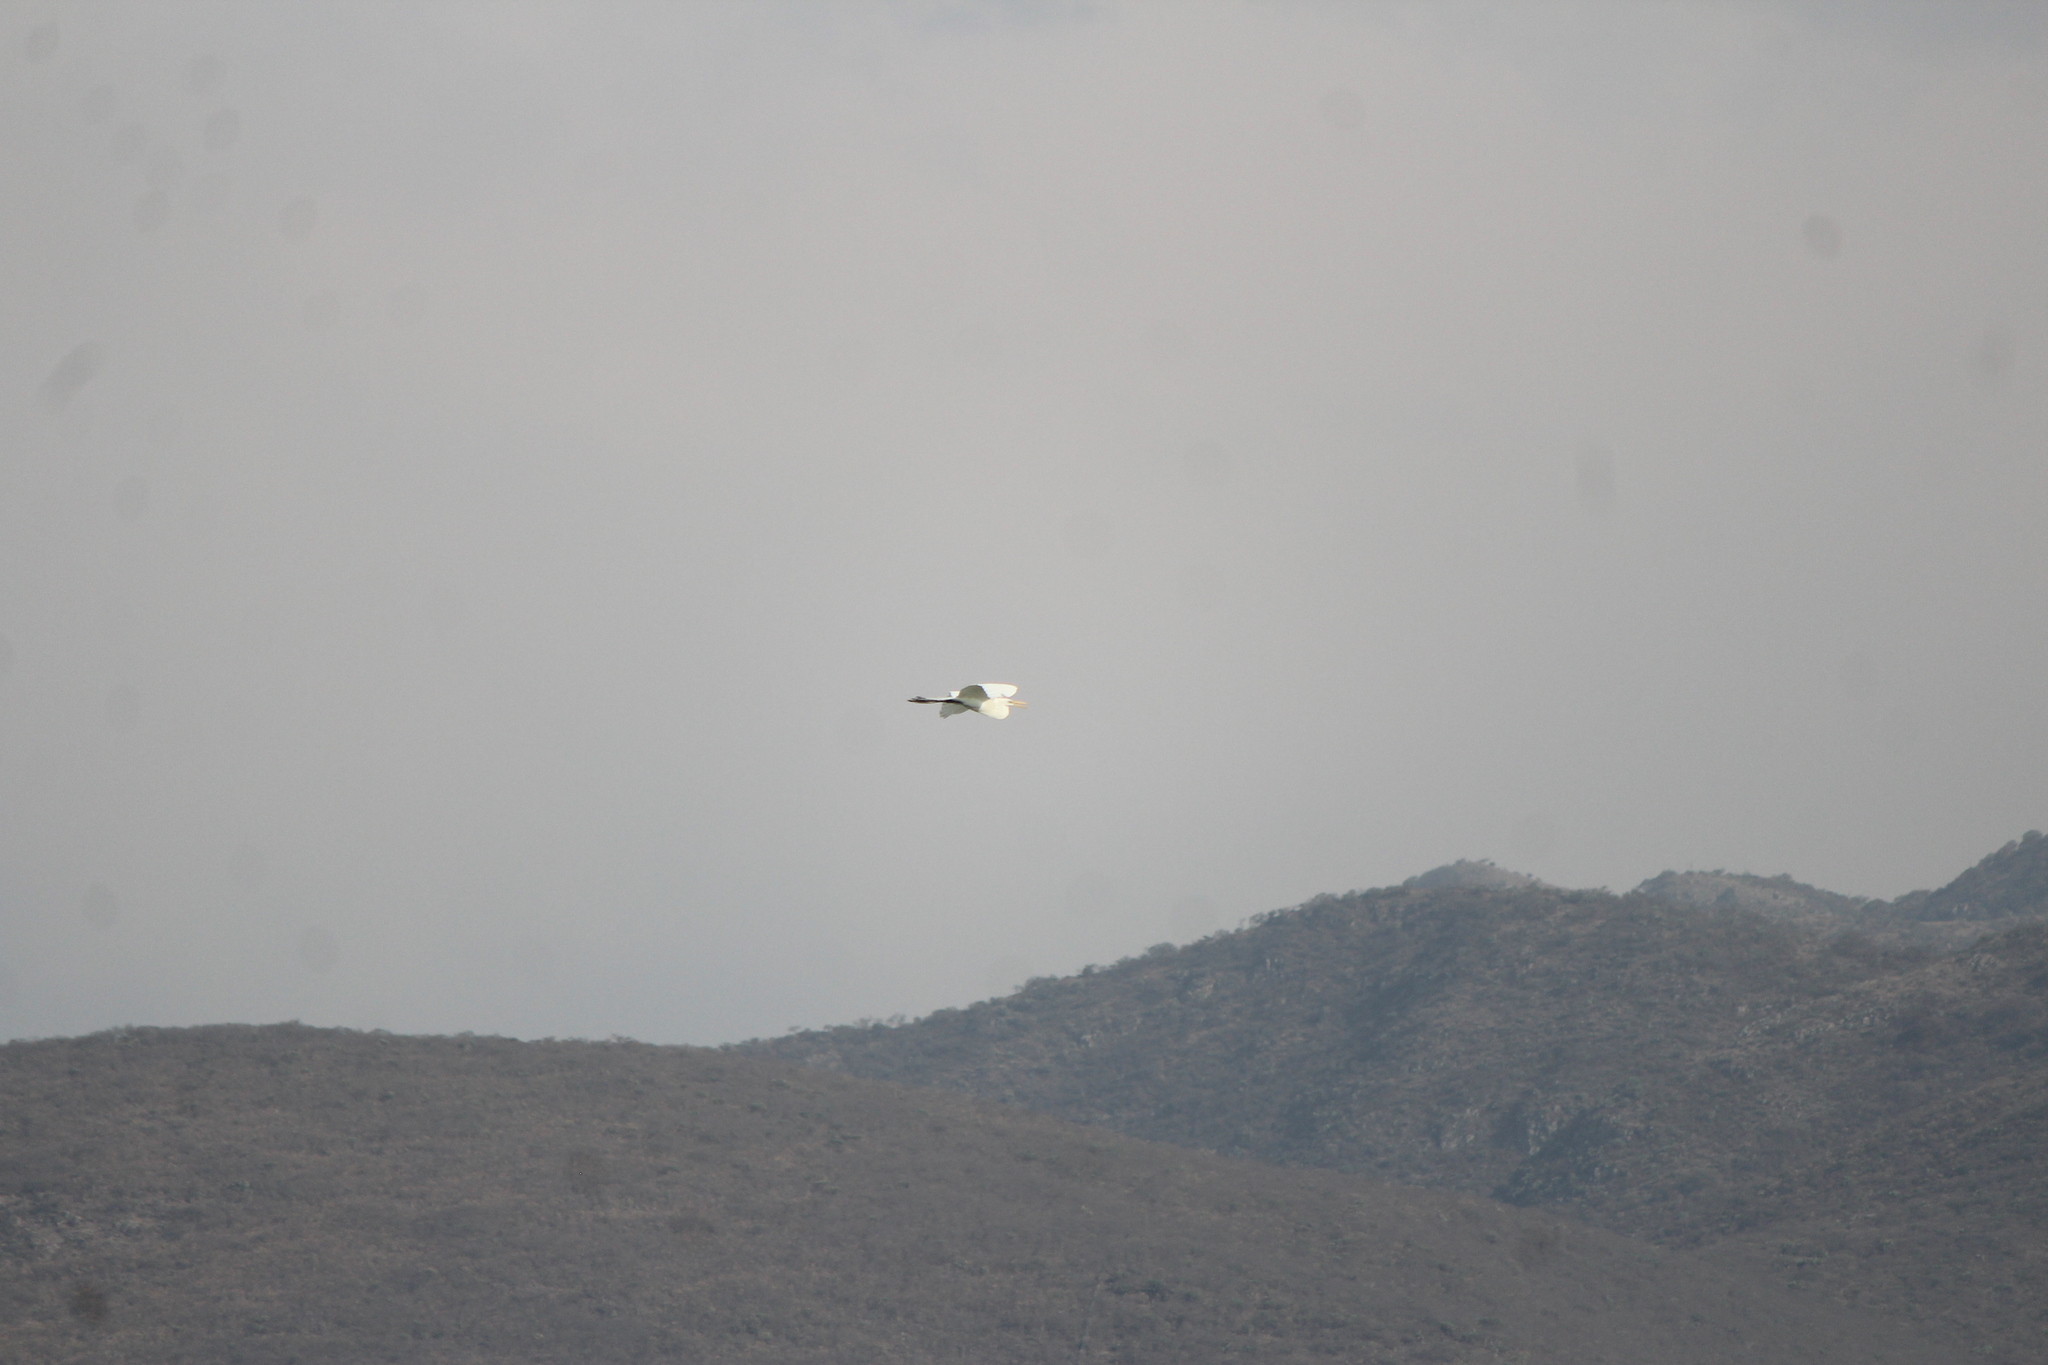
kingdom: Animalia
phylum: Chordata
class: Aves
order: Pelecaniformes
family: Ardeidae
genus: Ardea
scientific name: Ardea alba
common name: Great egret
